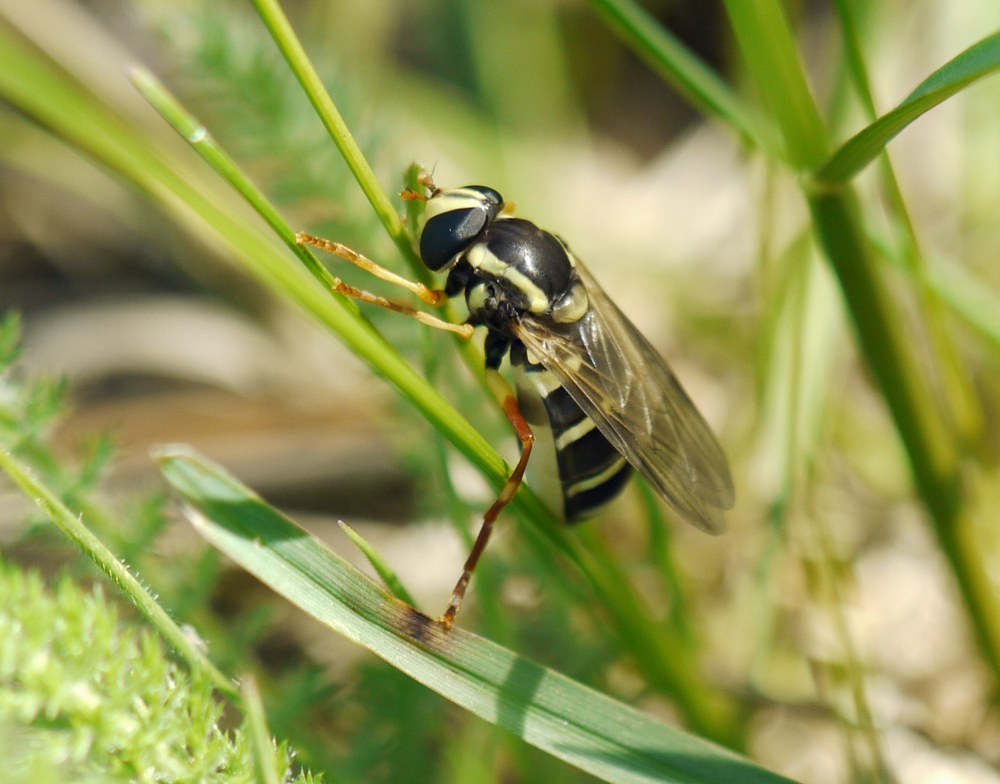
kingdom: Animalia
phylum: Arthropoda
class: Insecta
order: Diptera
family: Syrphidae
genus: Philhelius
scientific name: Philhelius citrofasciata
